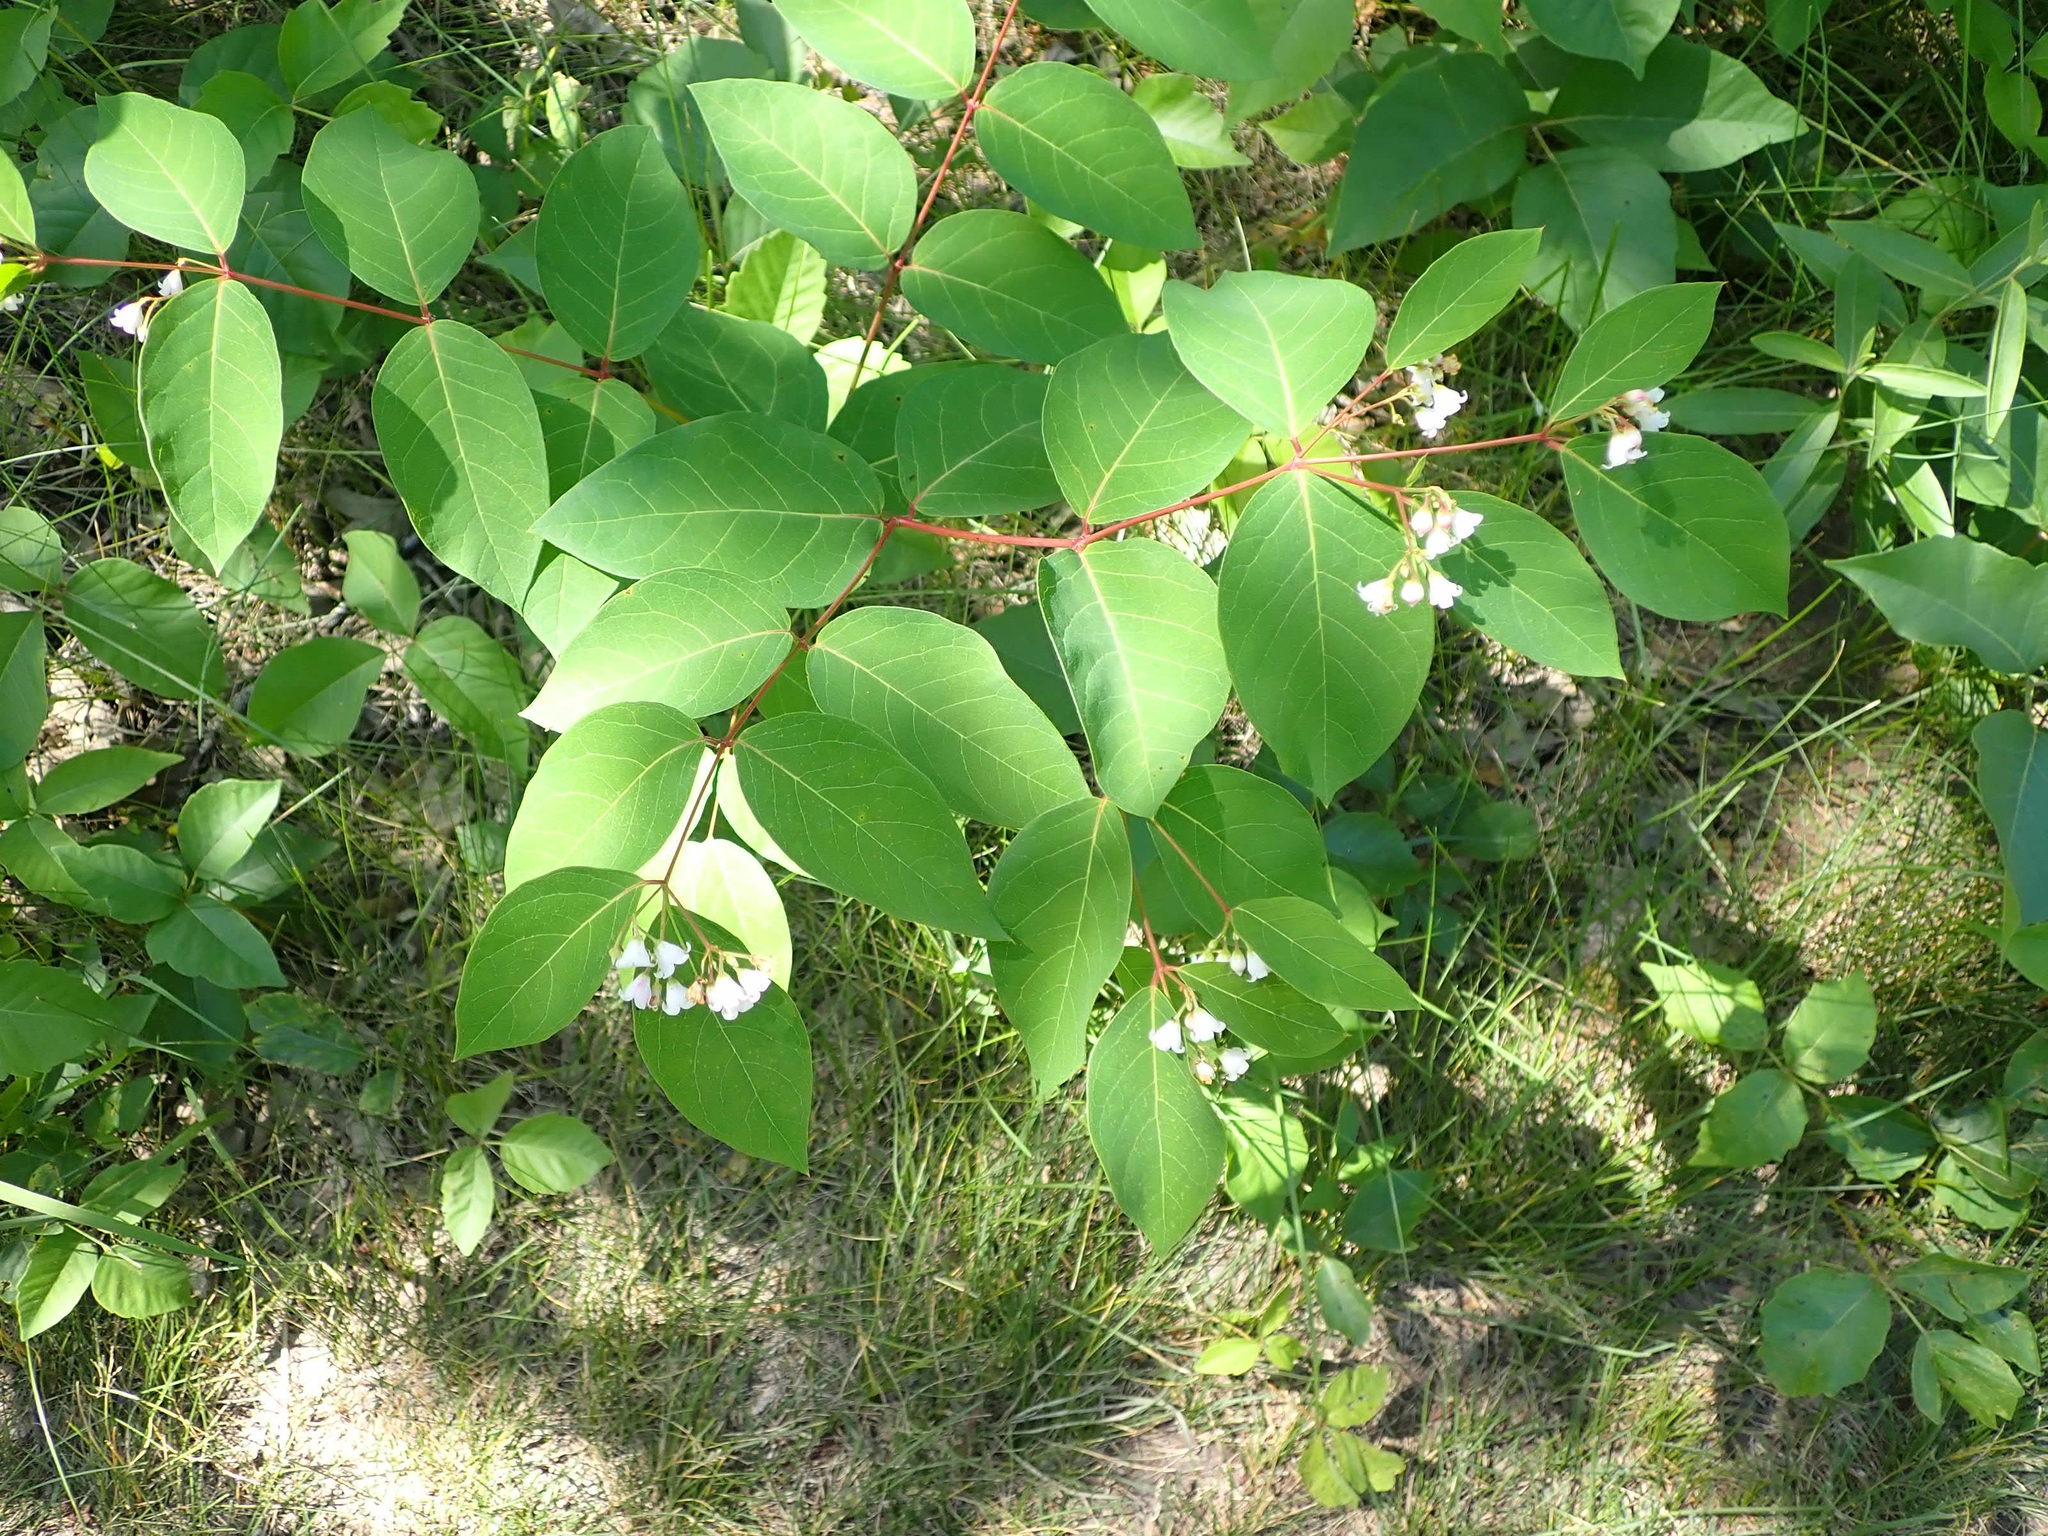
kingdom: Plantae
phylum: Tracheophyta
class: Magnoliopsida
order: Gentianales
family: Apocynaceae
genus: Apocynum
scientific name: Apocynum androsaemifolium
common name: Spreading dogbane
